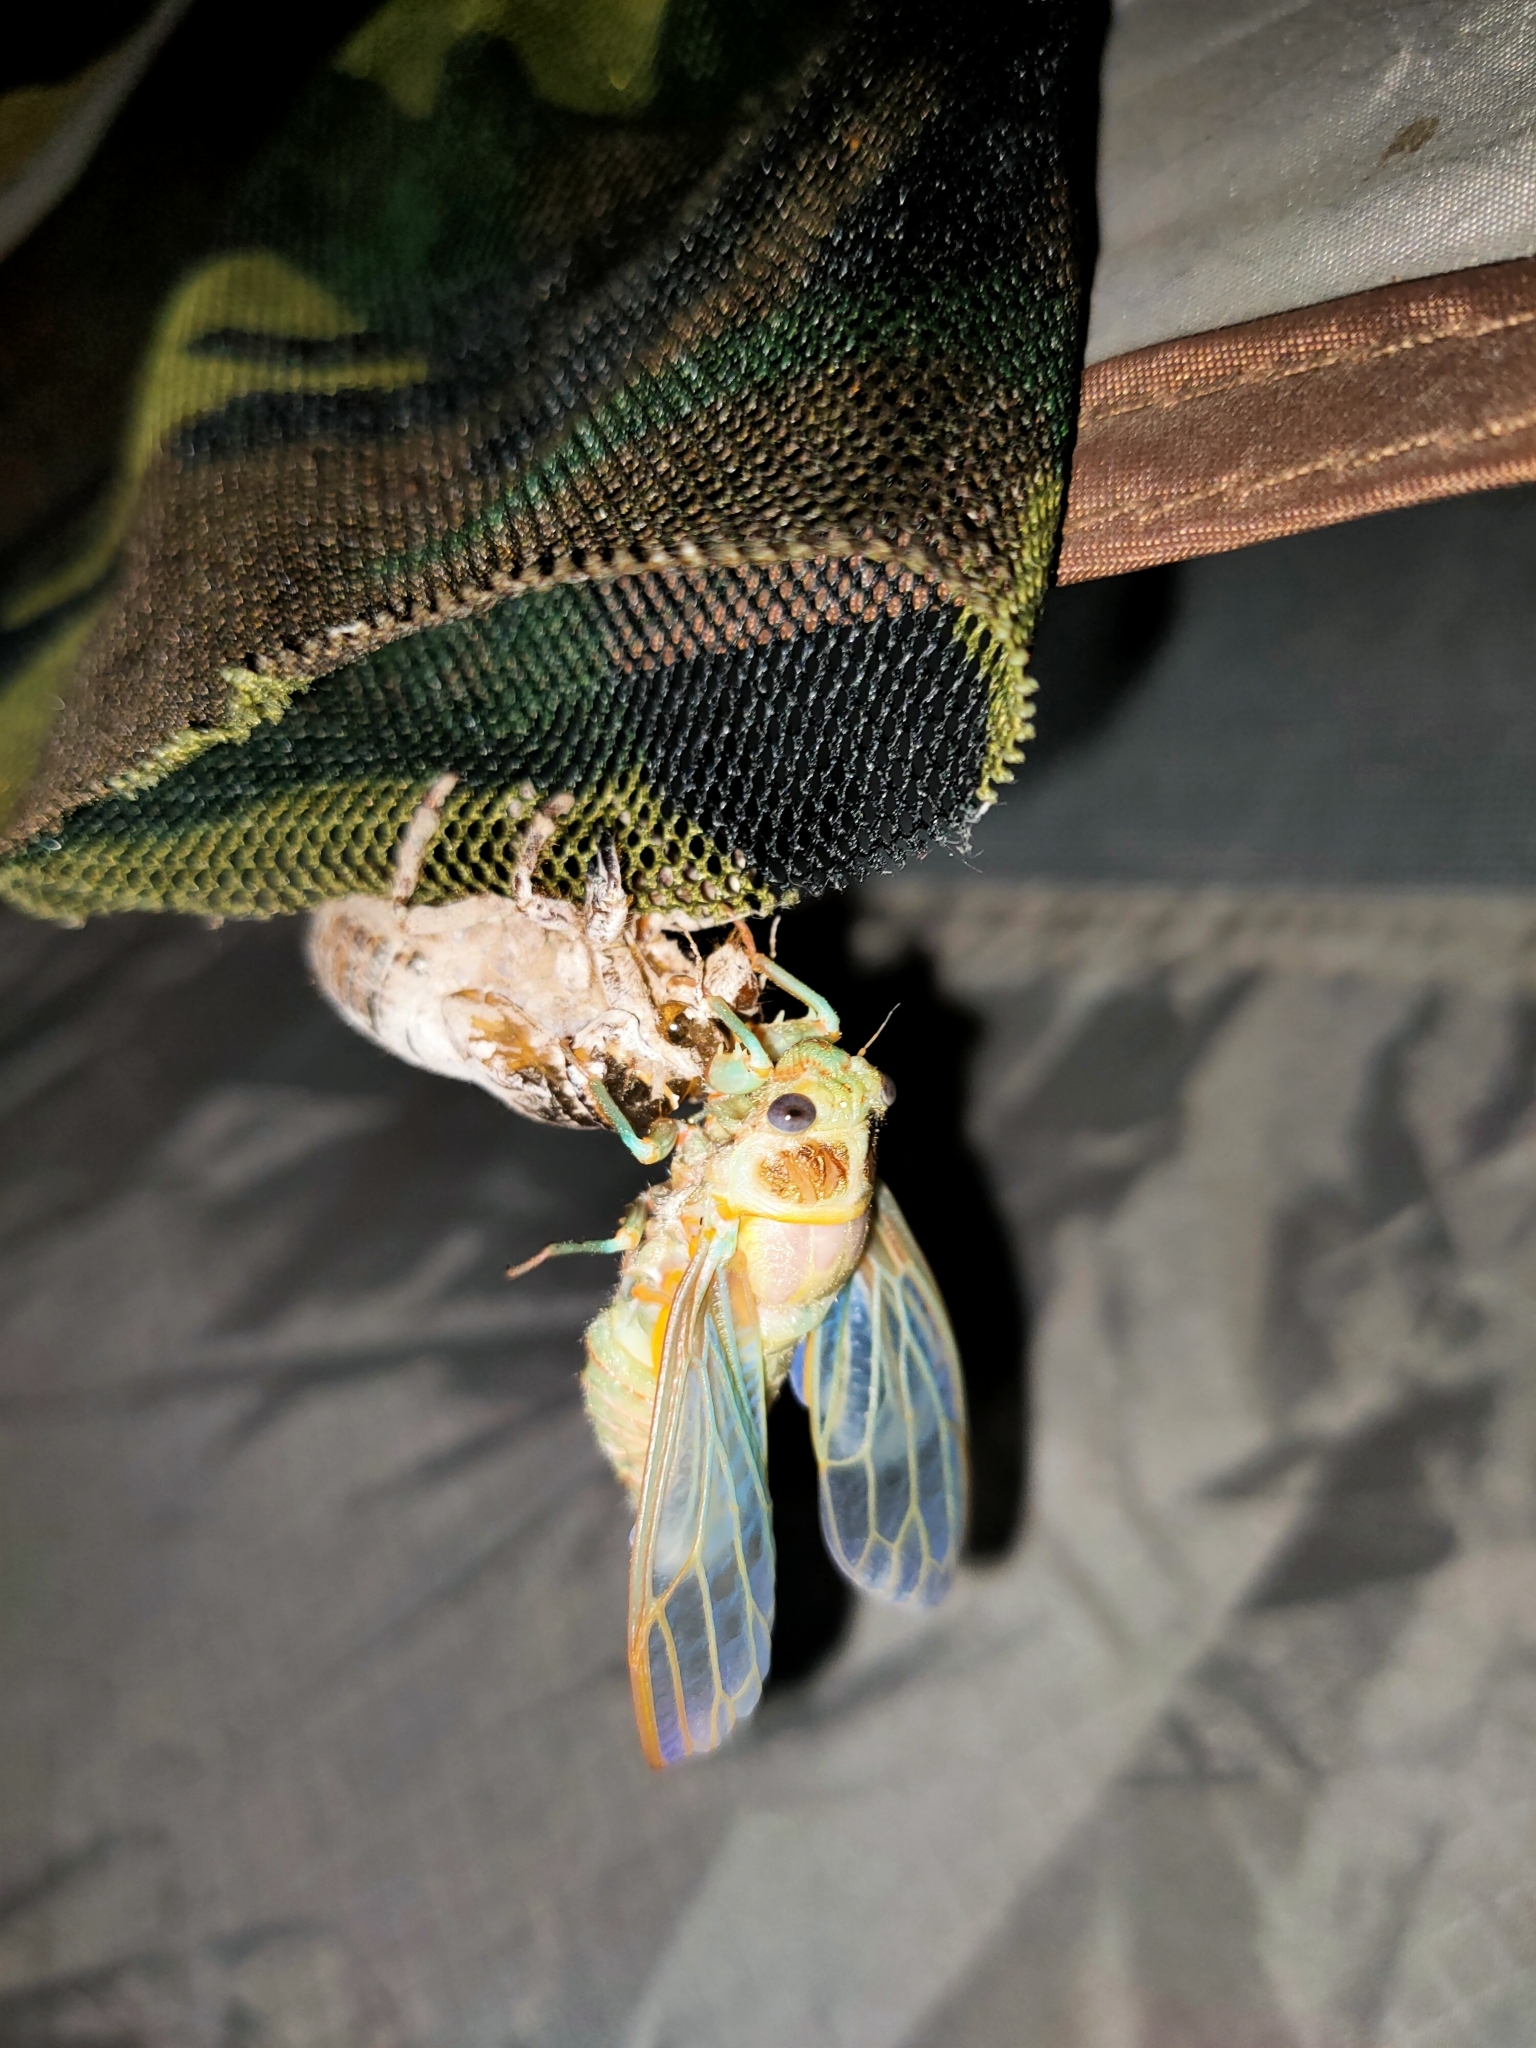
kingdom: Animalia
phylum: Arthropoda
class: Insecta
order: Hemiptera
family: Cicadidae
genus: Tibicina
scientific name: Tibicina steveni
